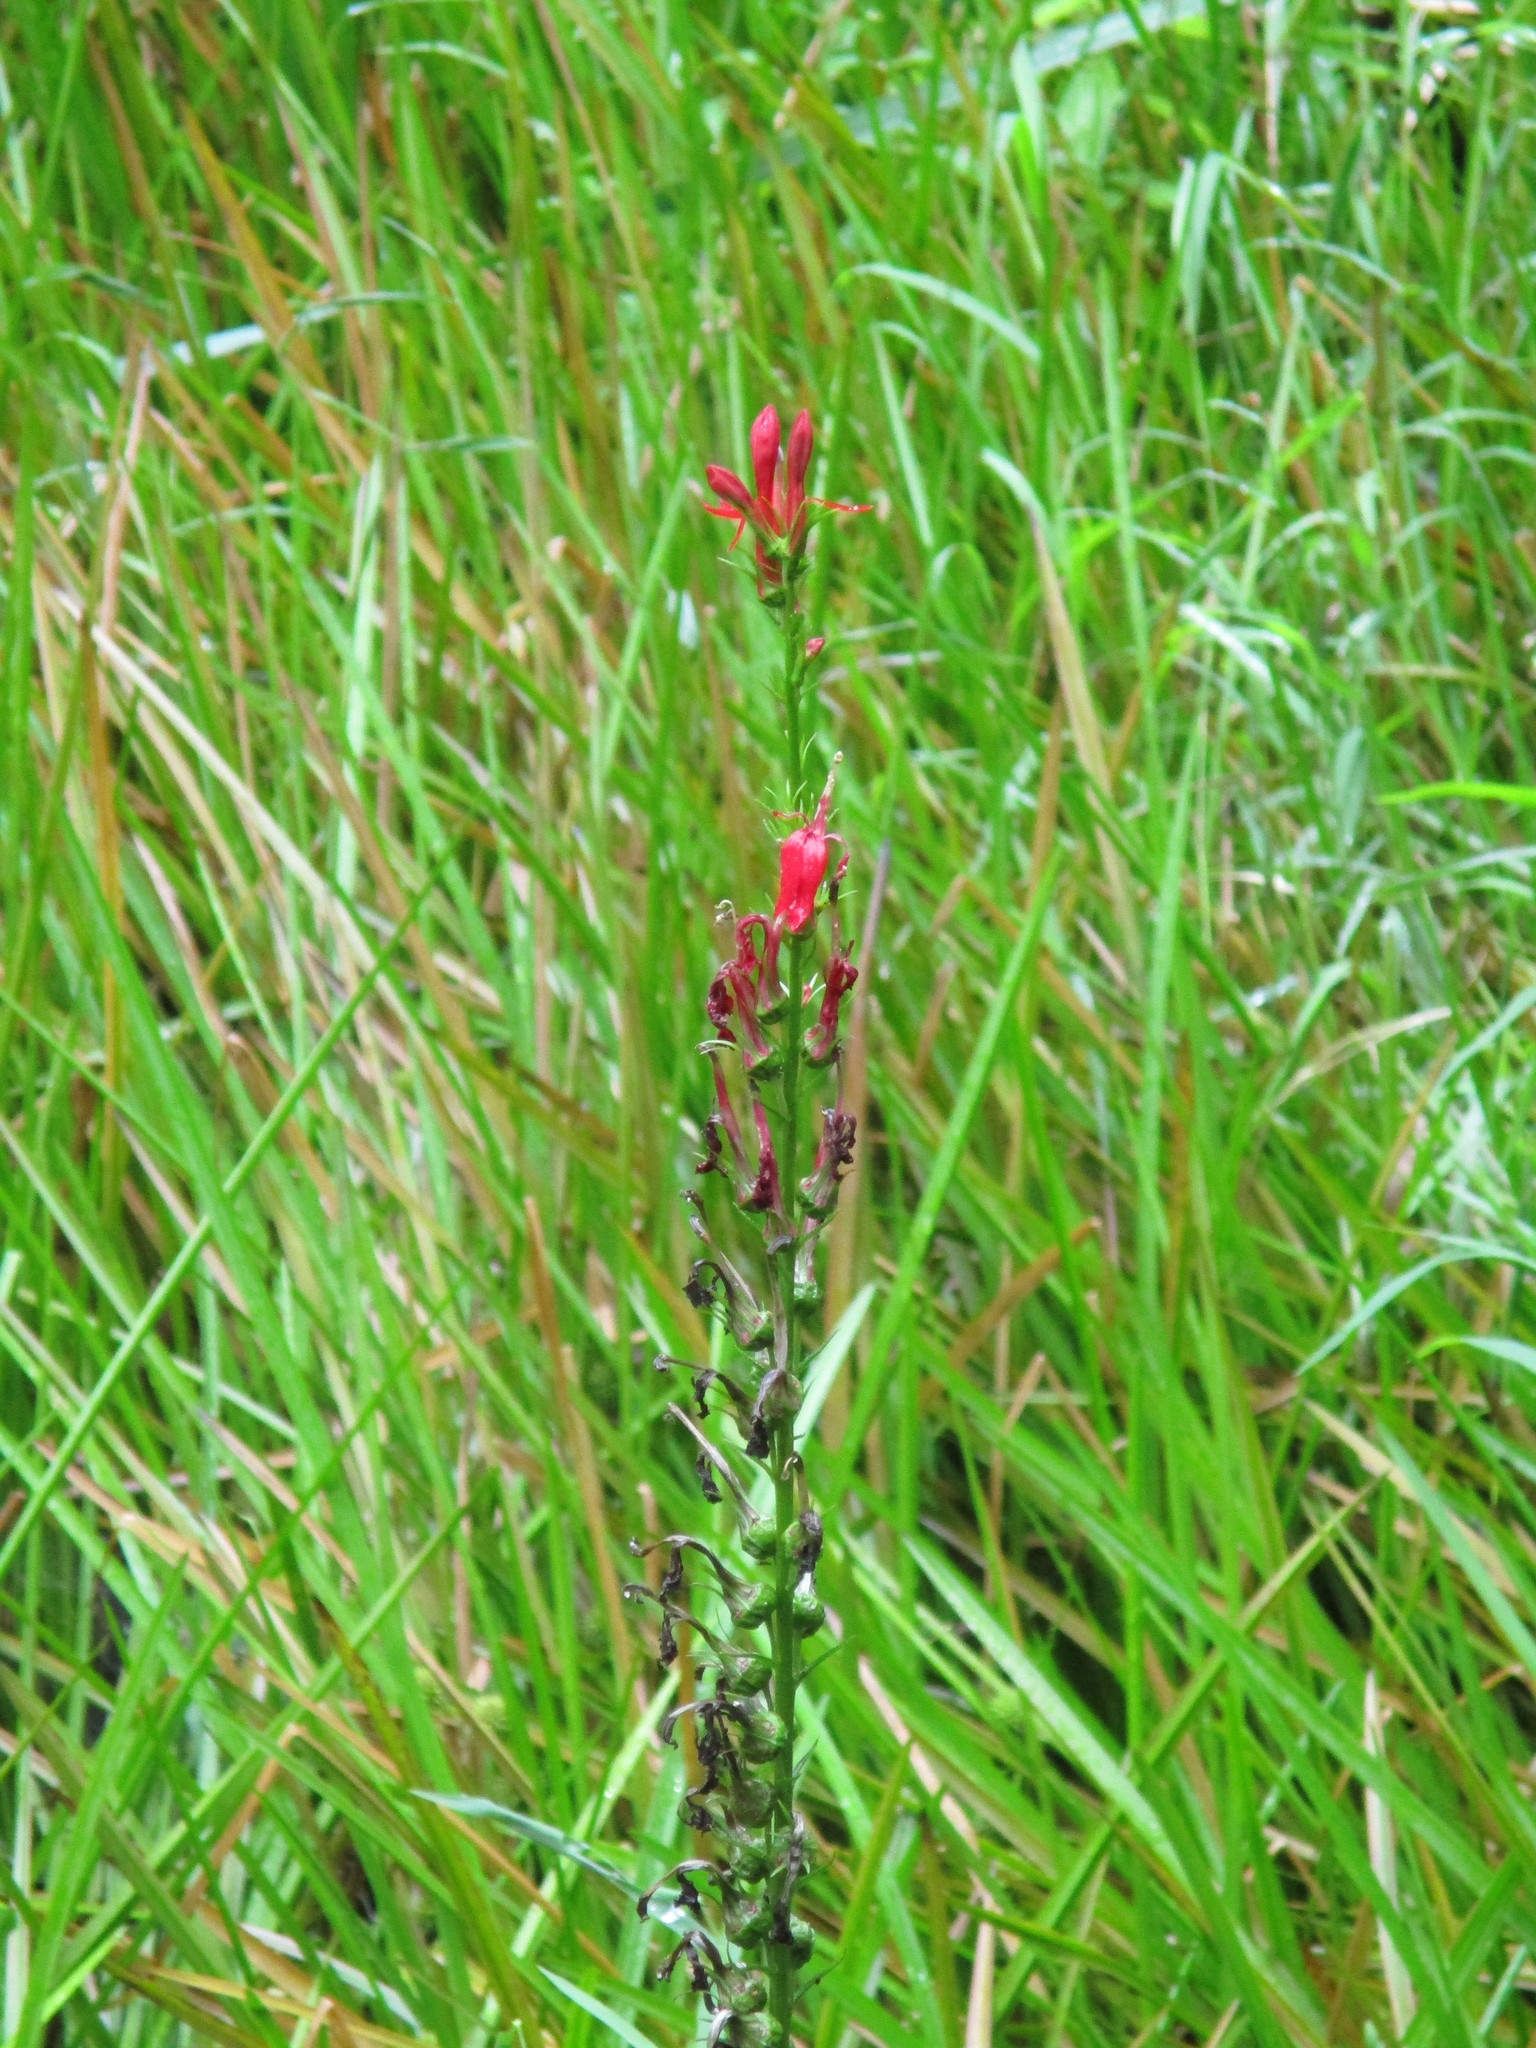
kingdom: Plantae
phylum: Tracheophyta
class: Magnoliopsida
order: Asterales
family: Campanulaceae
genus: Lobelia
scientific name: Lobelia cardinalis
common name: Cardinal flower
